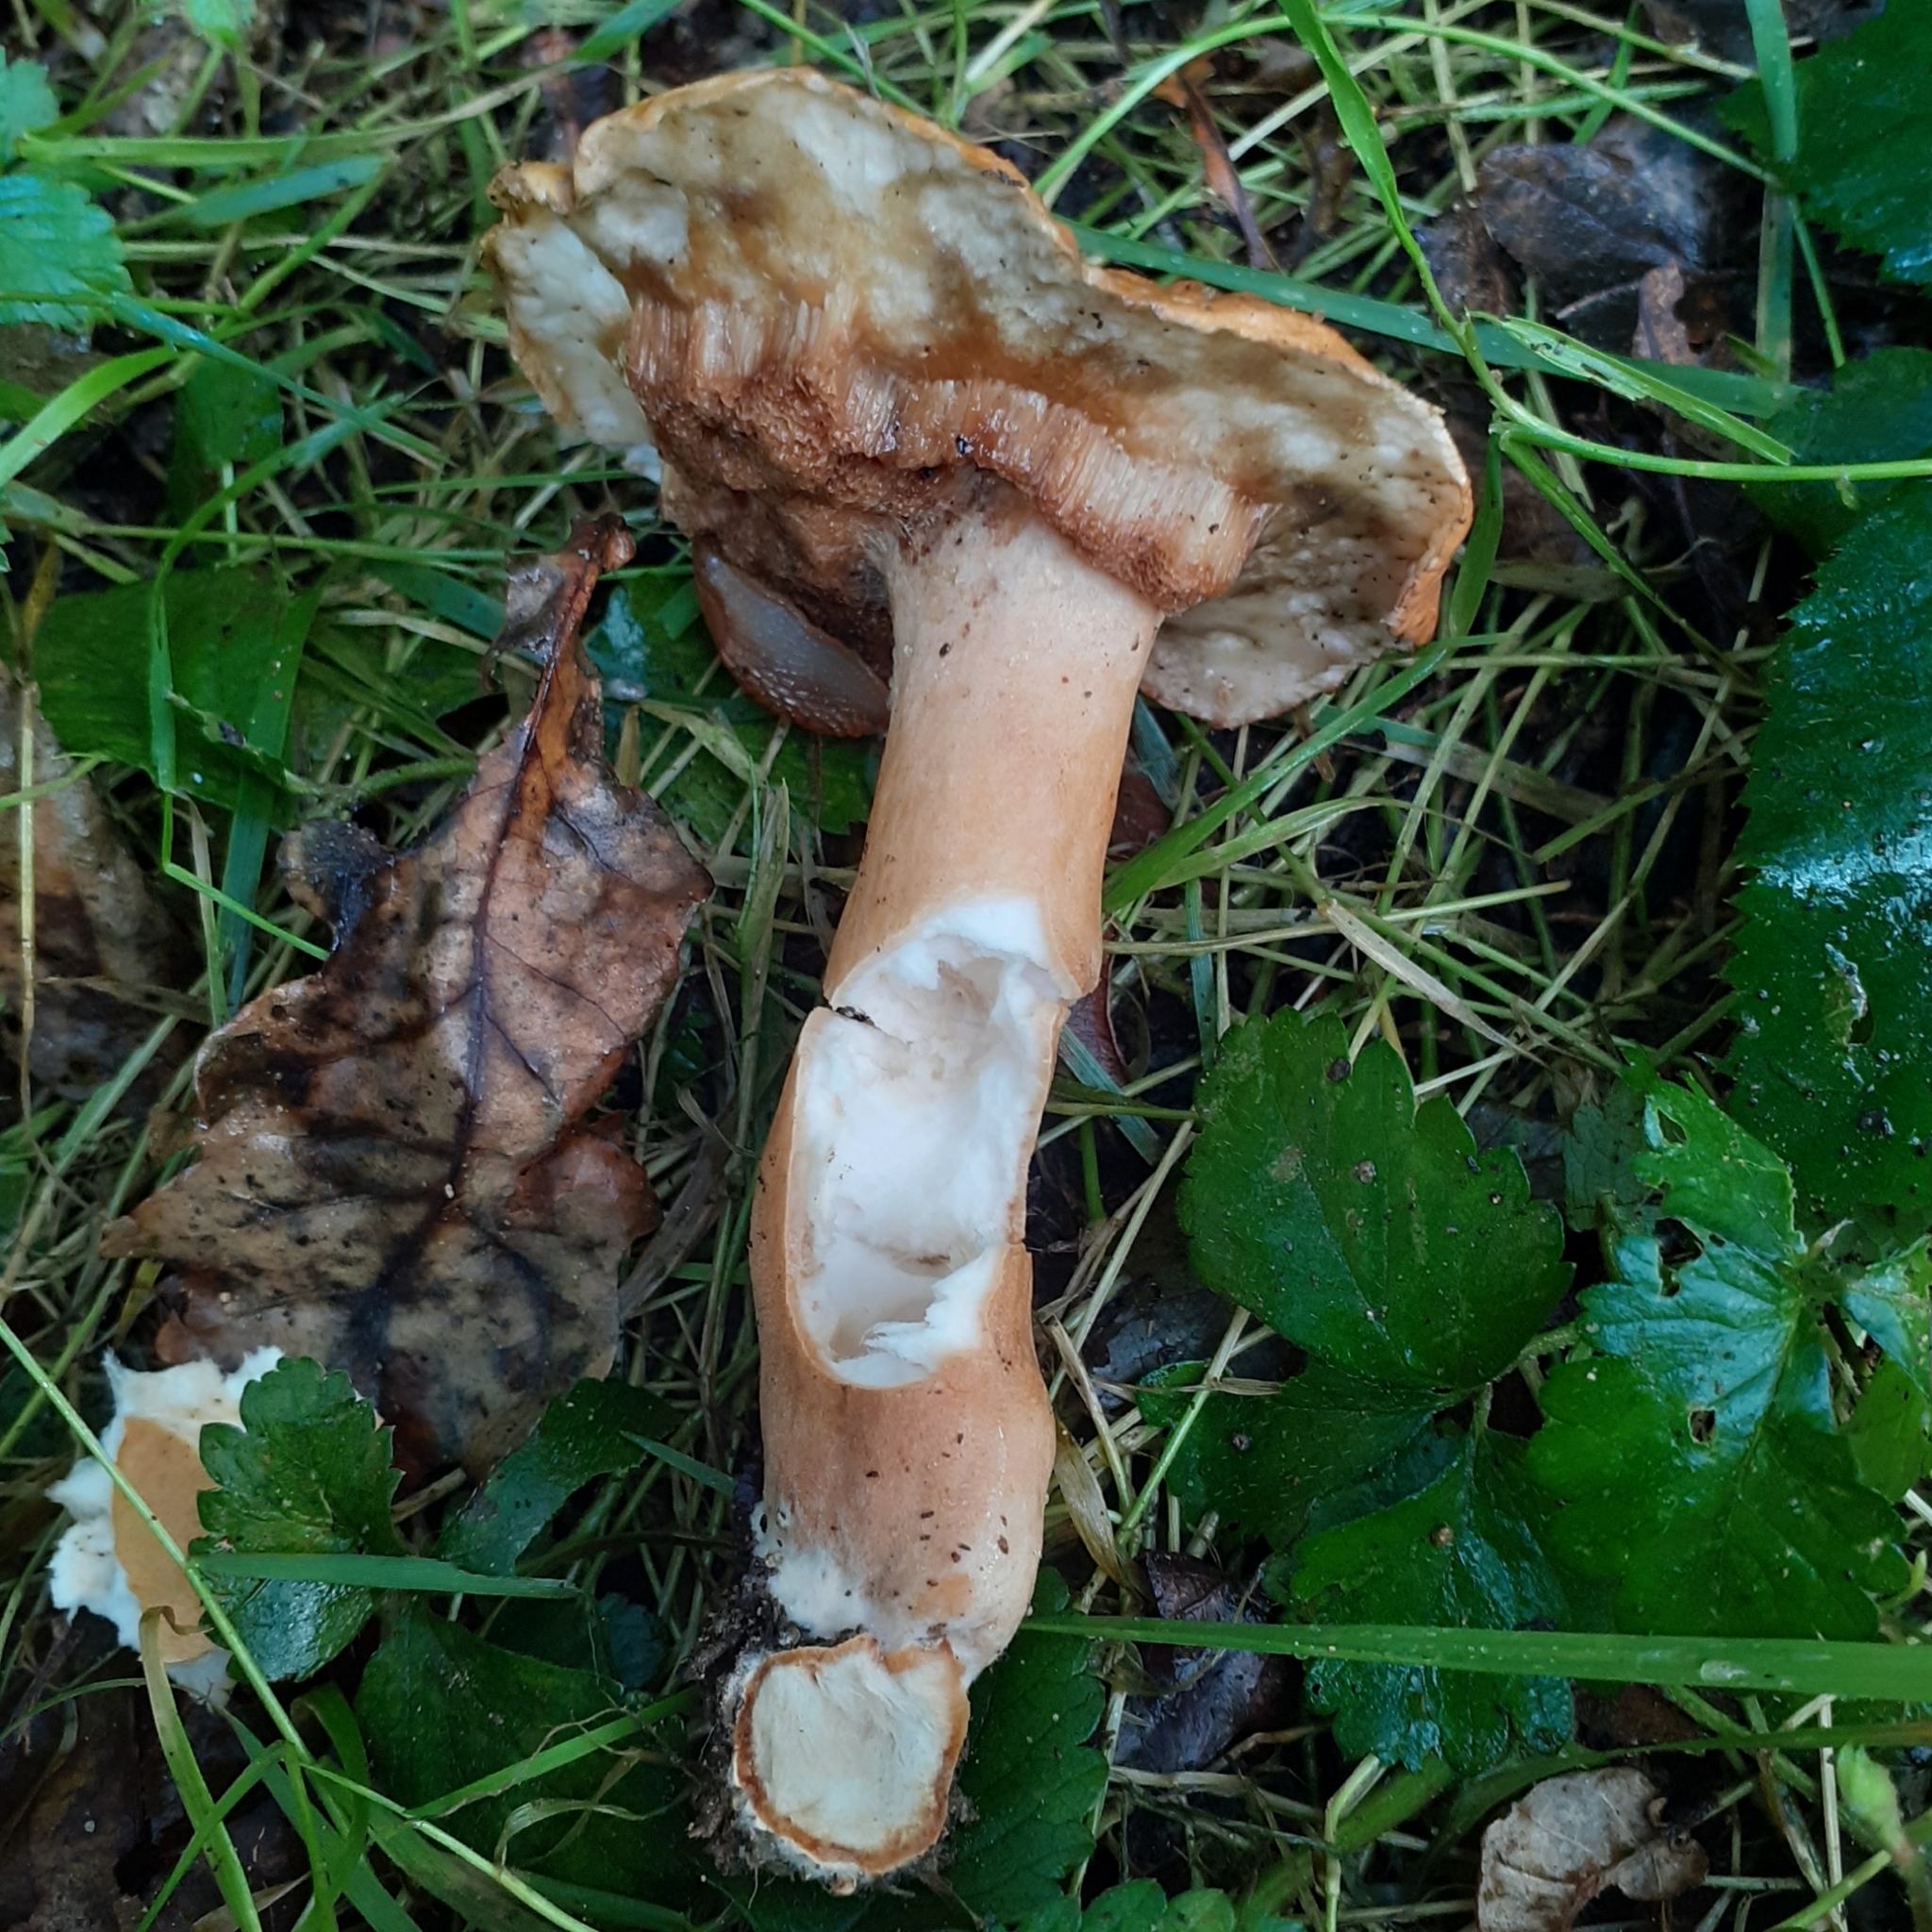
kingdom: Fungi
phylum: Basidiomycota
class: Agaricomycetes
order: Boletales
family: Gyroporaceae
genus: Gyroporus
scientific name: Gyroporus castaneus
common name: Chestnut bolete
